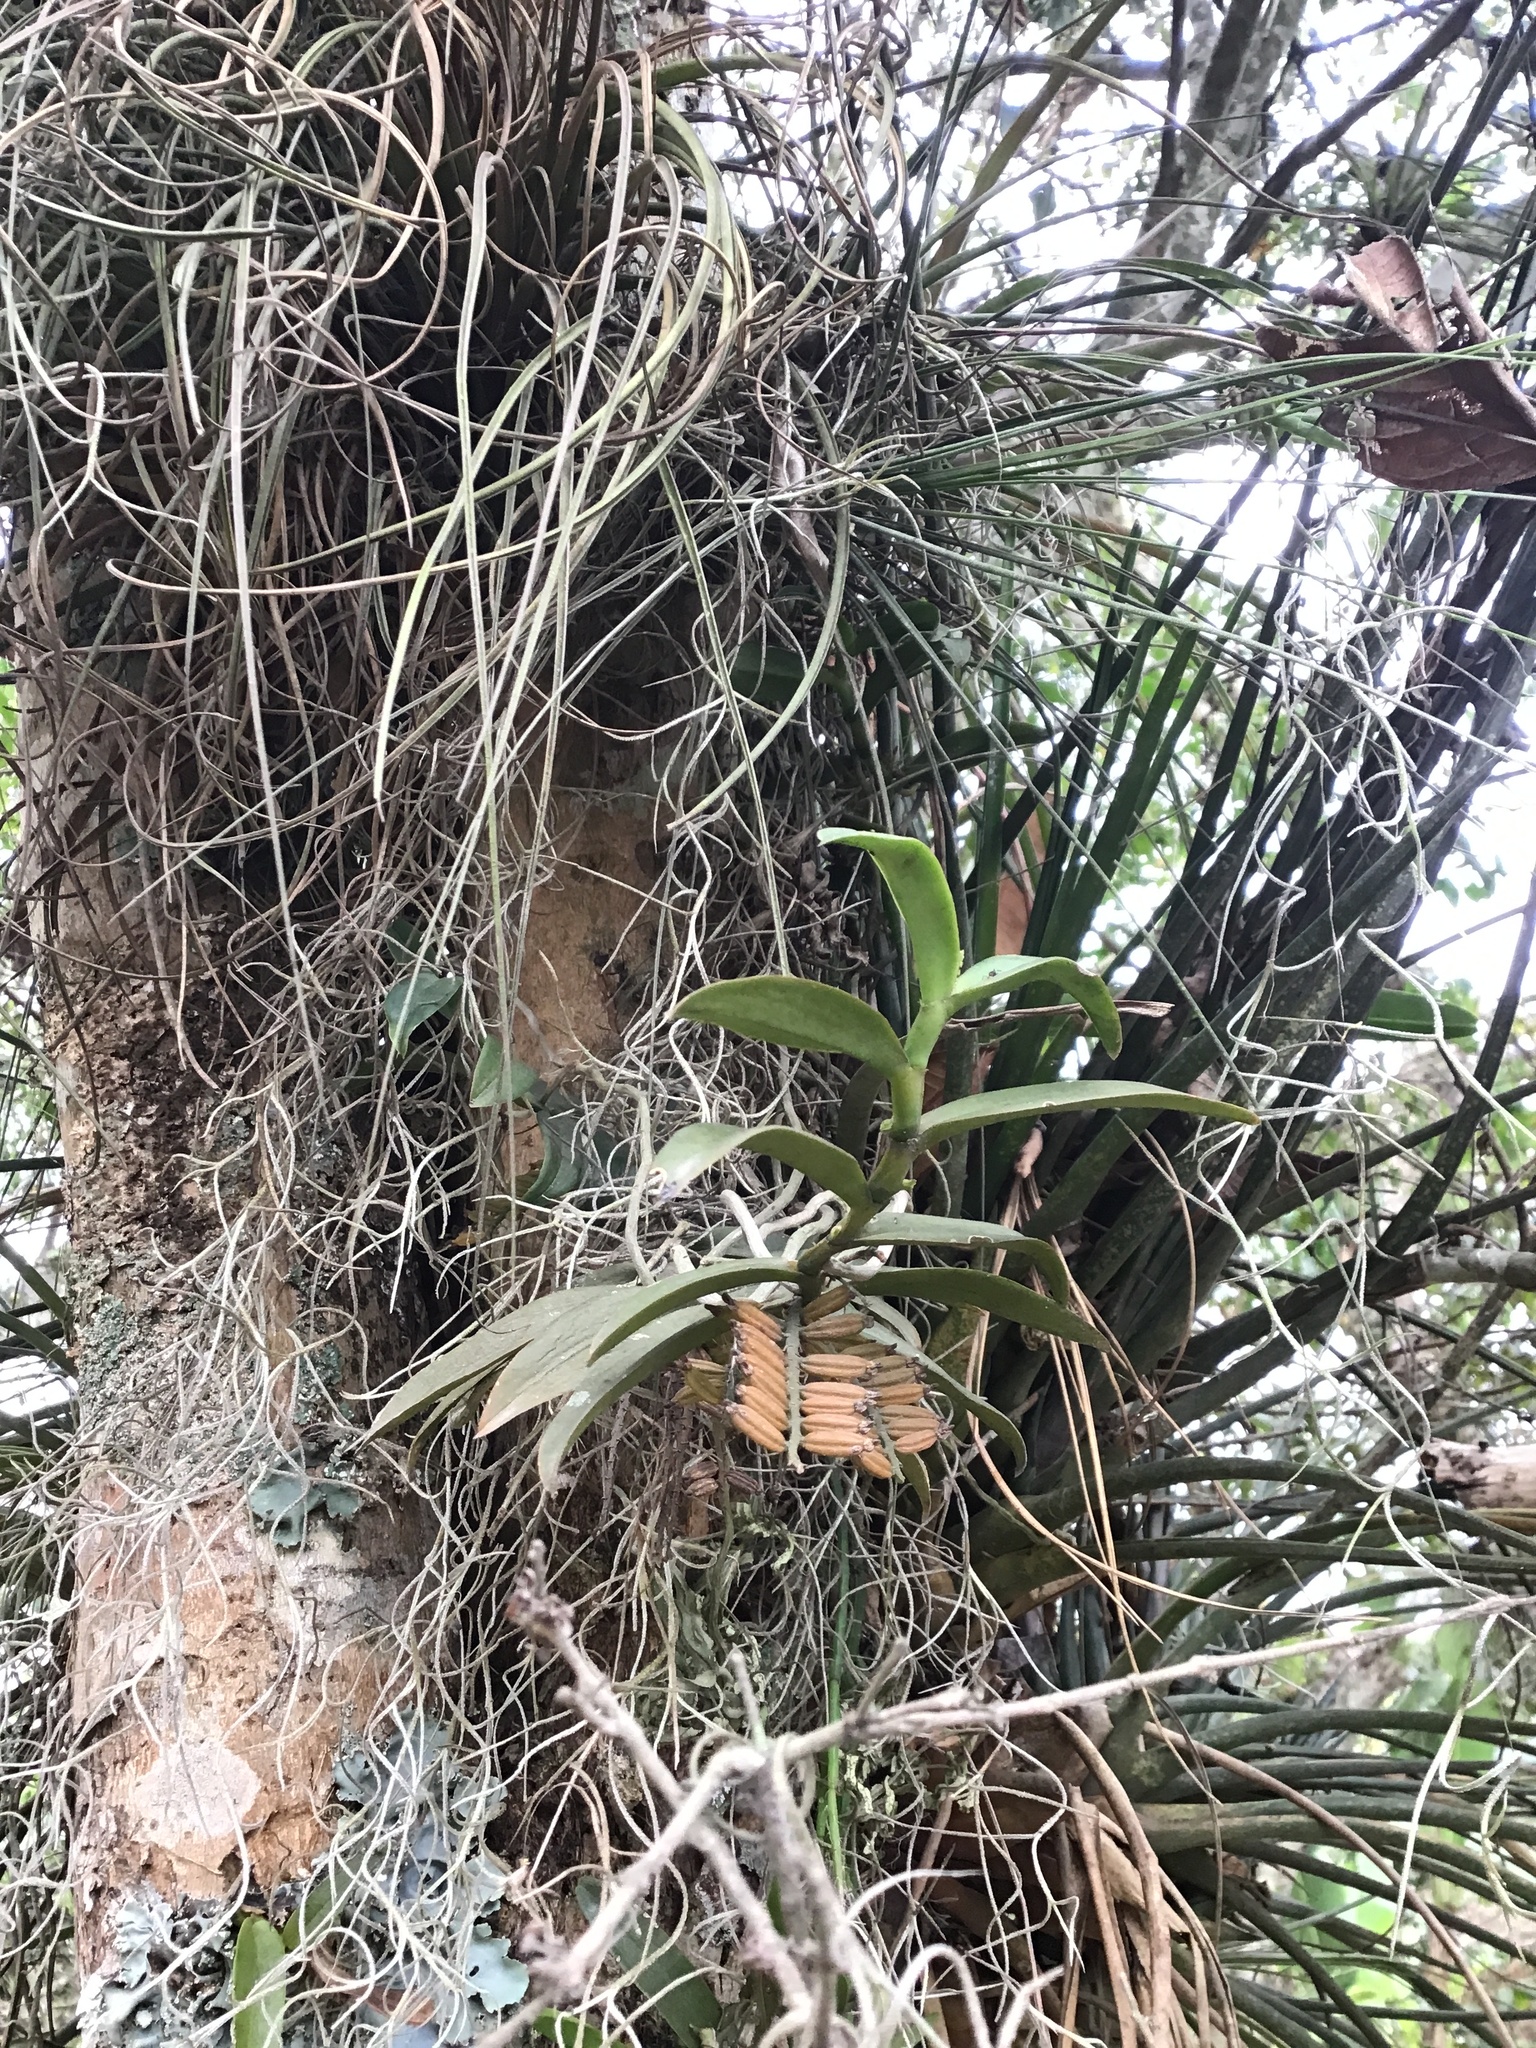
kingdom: Plantae
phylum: Tracheophyta
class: Liliopsida
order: Asparagales
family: Orchidaceae
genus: Campylocentrum
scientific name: Campylocentrum micranthum
